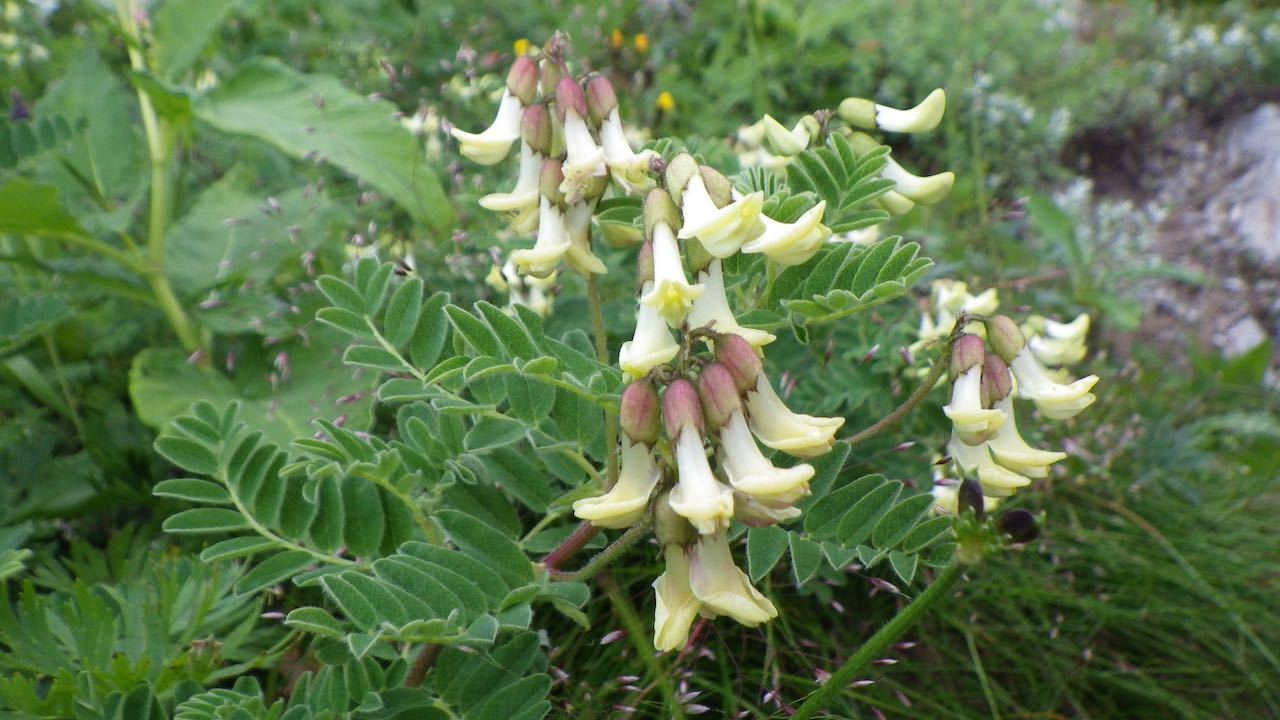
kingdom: Plantae
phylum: Tracheophyta
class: Magnoliopsida
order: Fabales
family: Fabaceae
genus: Astragalus
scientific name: Astragalus shinanensis
